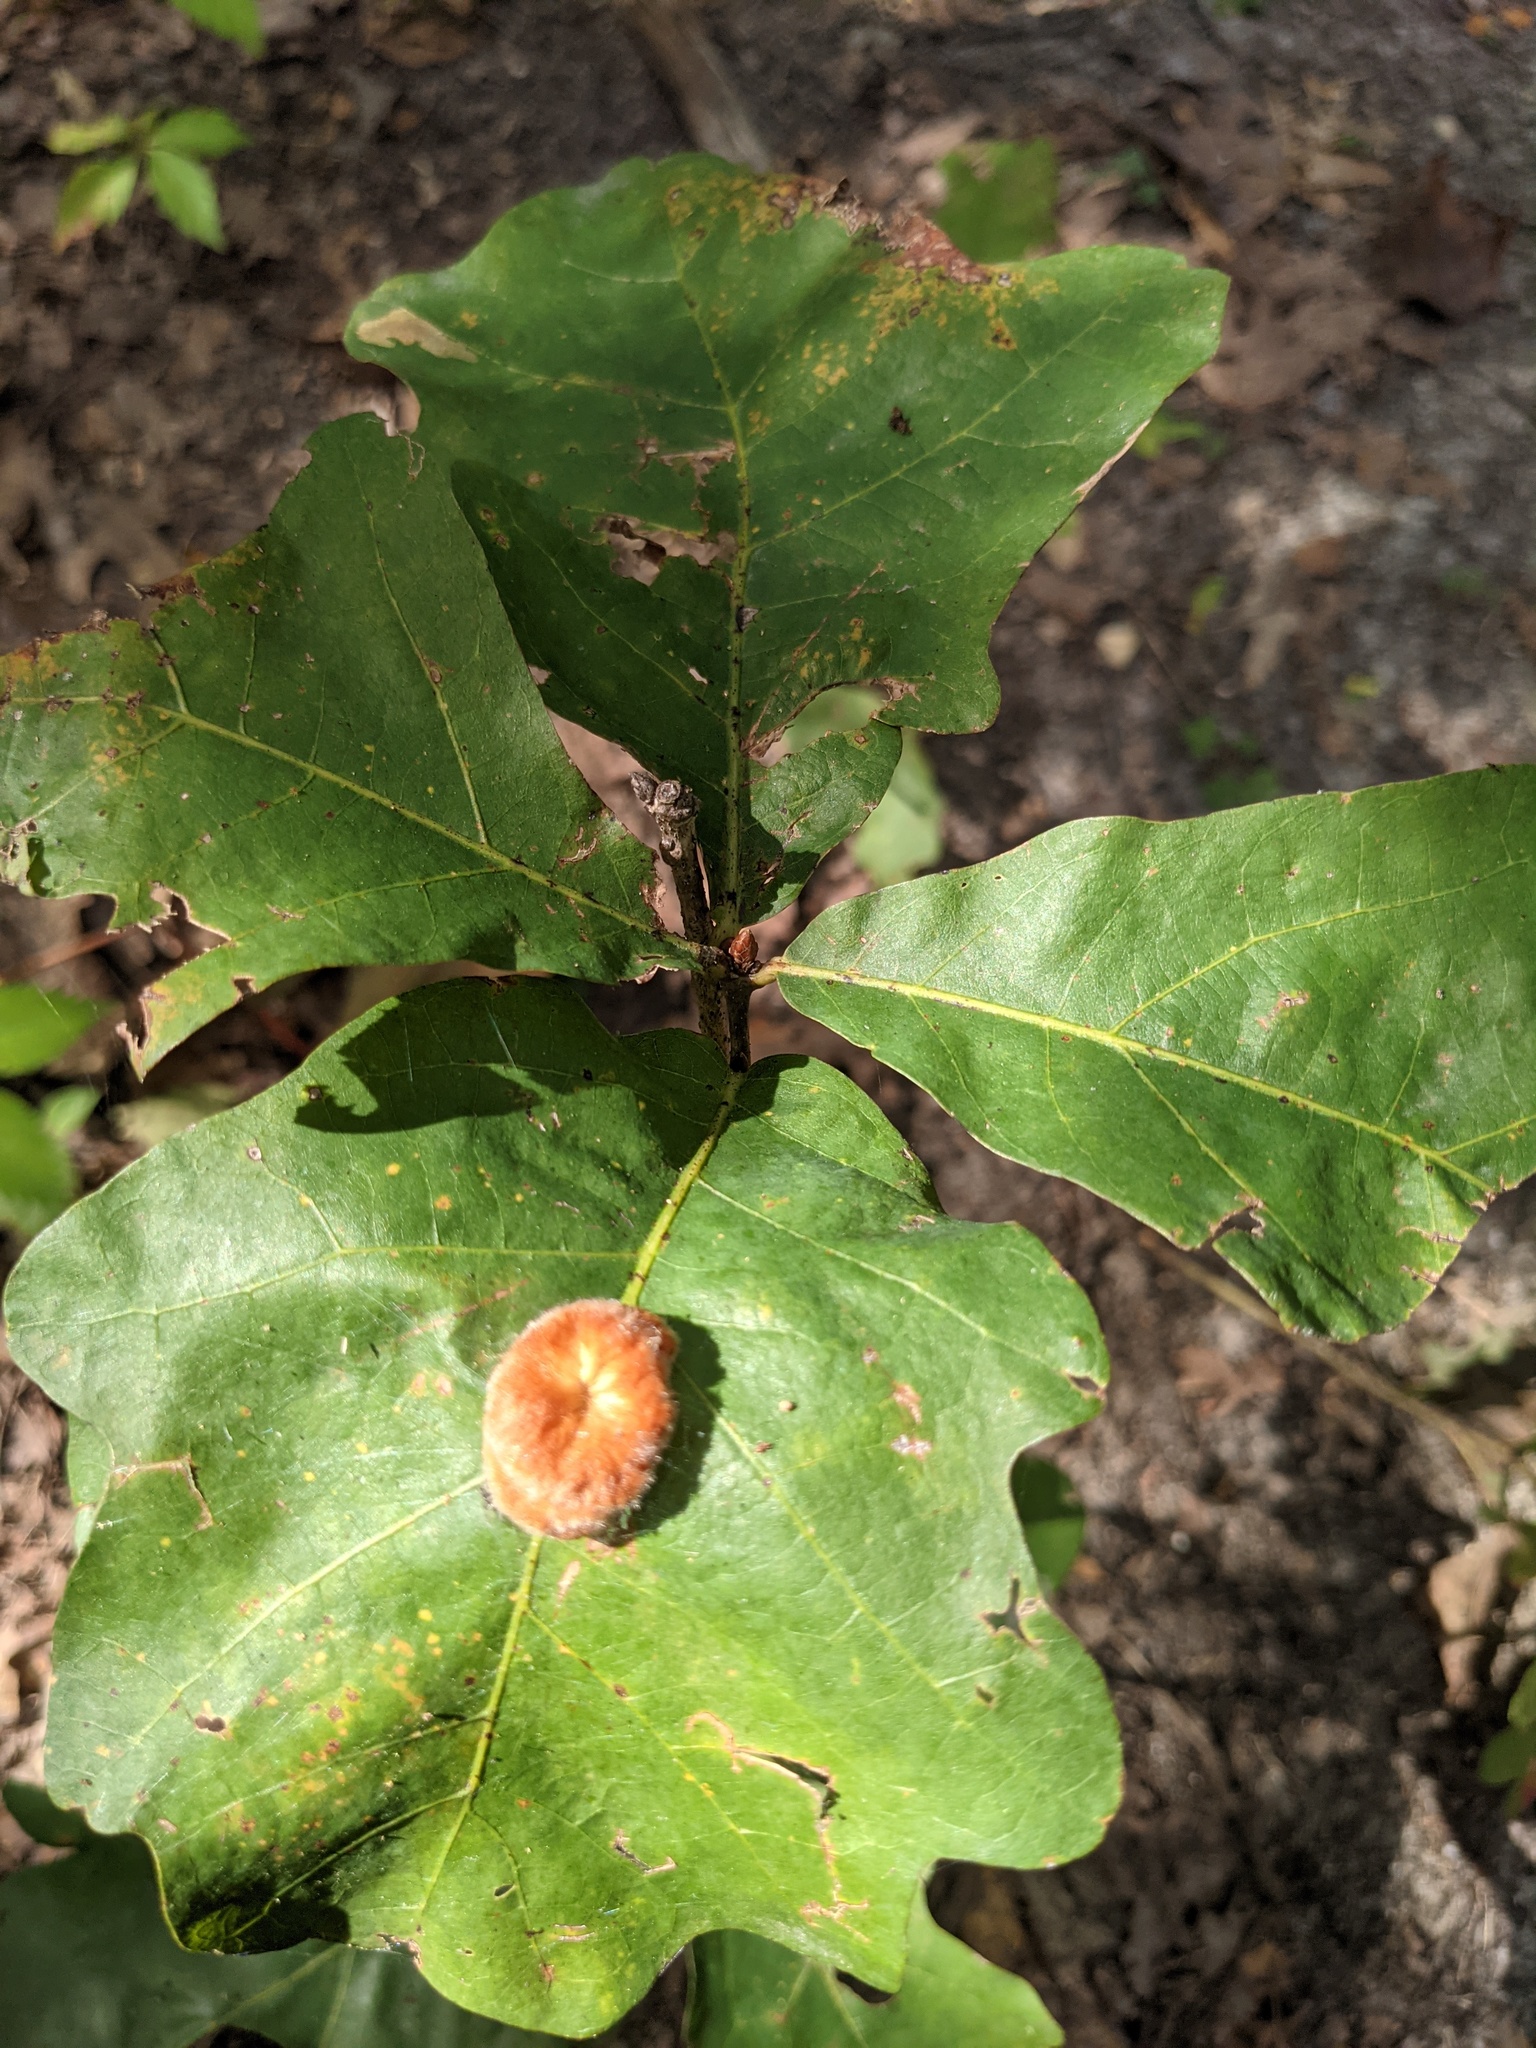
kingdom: Animalia
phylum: Arthropoda
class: Insecta
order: Hymenoptera
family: Cynipidae
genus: Andricus
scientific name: Andricus quercusflocci
